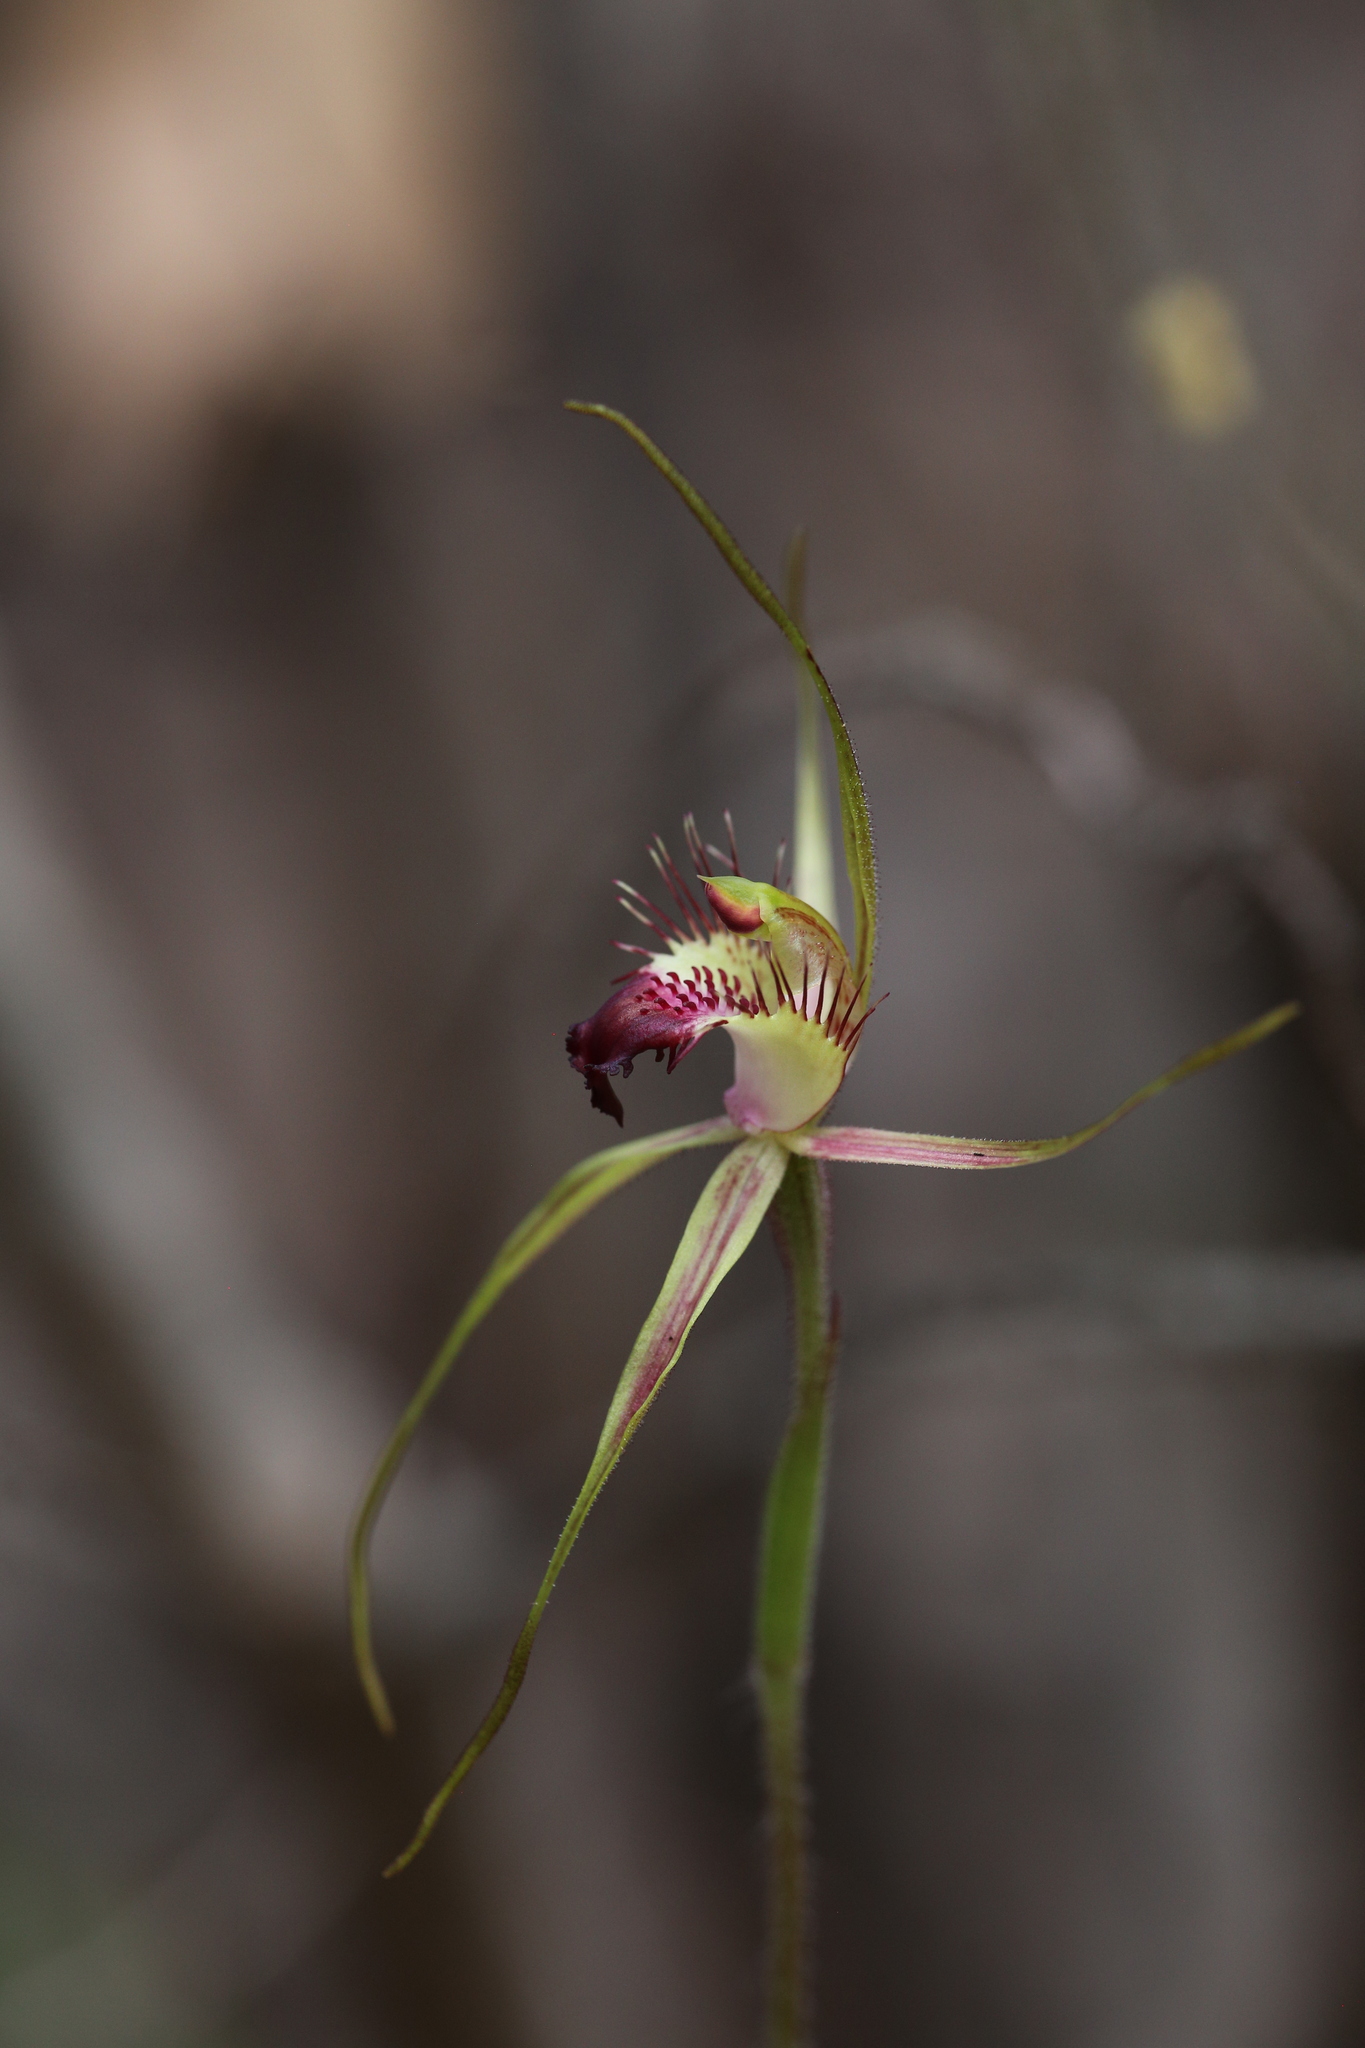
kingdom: Plantae
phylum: Tracheophyta
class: Liliopsida
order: Asparagales
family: Orchidaceae
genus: Caladenia
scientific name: Caladenia brownii
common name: Kari spider orchid
